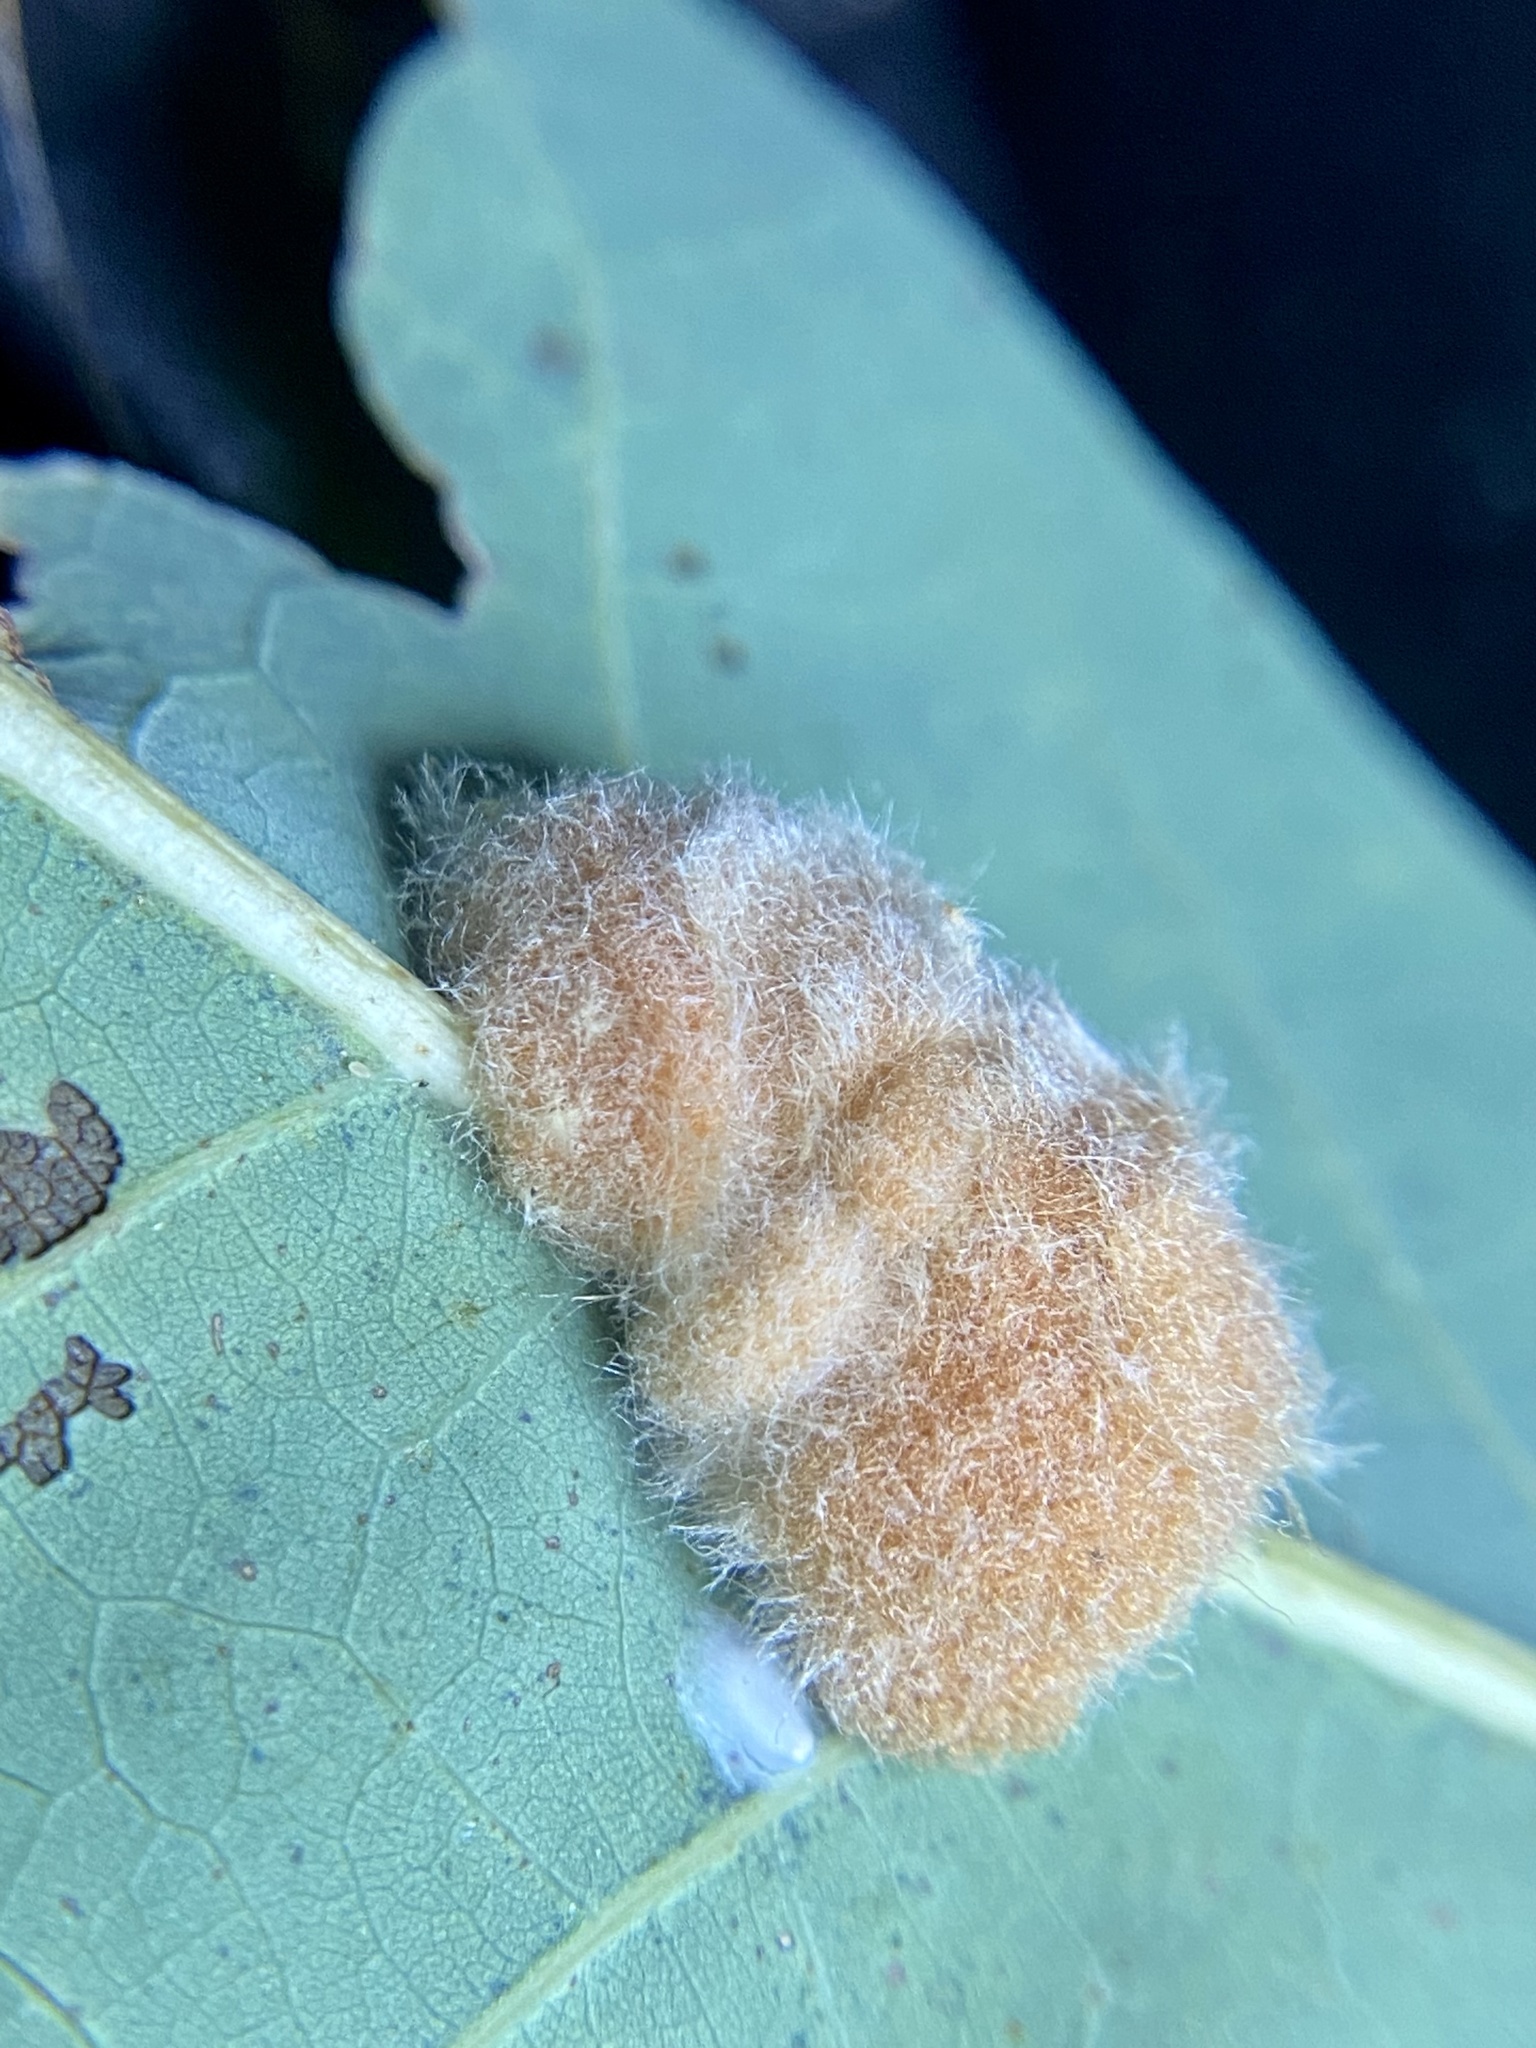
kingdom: Animalia
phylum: Arthropoda
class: Insecta
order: Hymenoptera
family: Cynipidae
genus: Andricus
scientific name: Andricus quercusflocci
